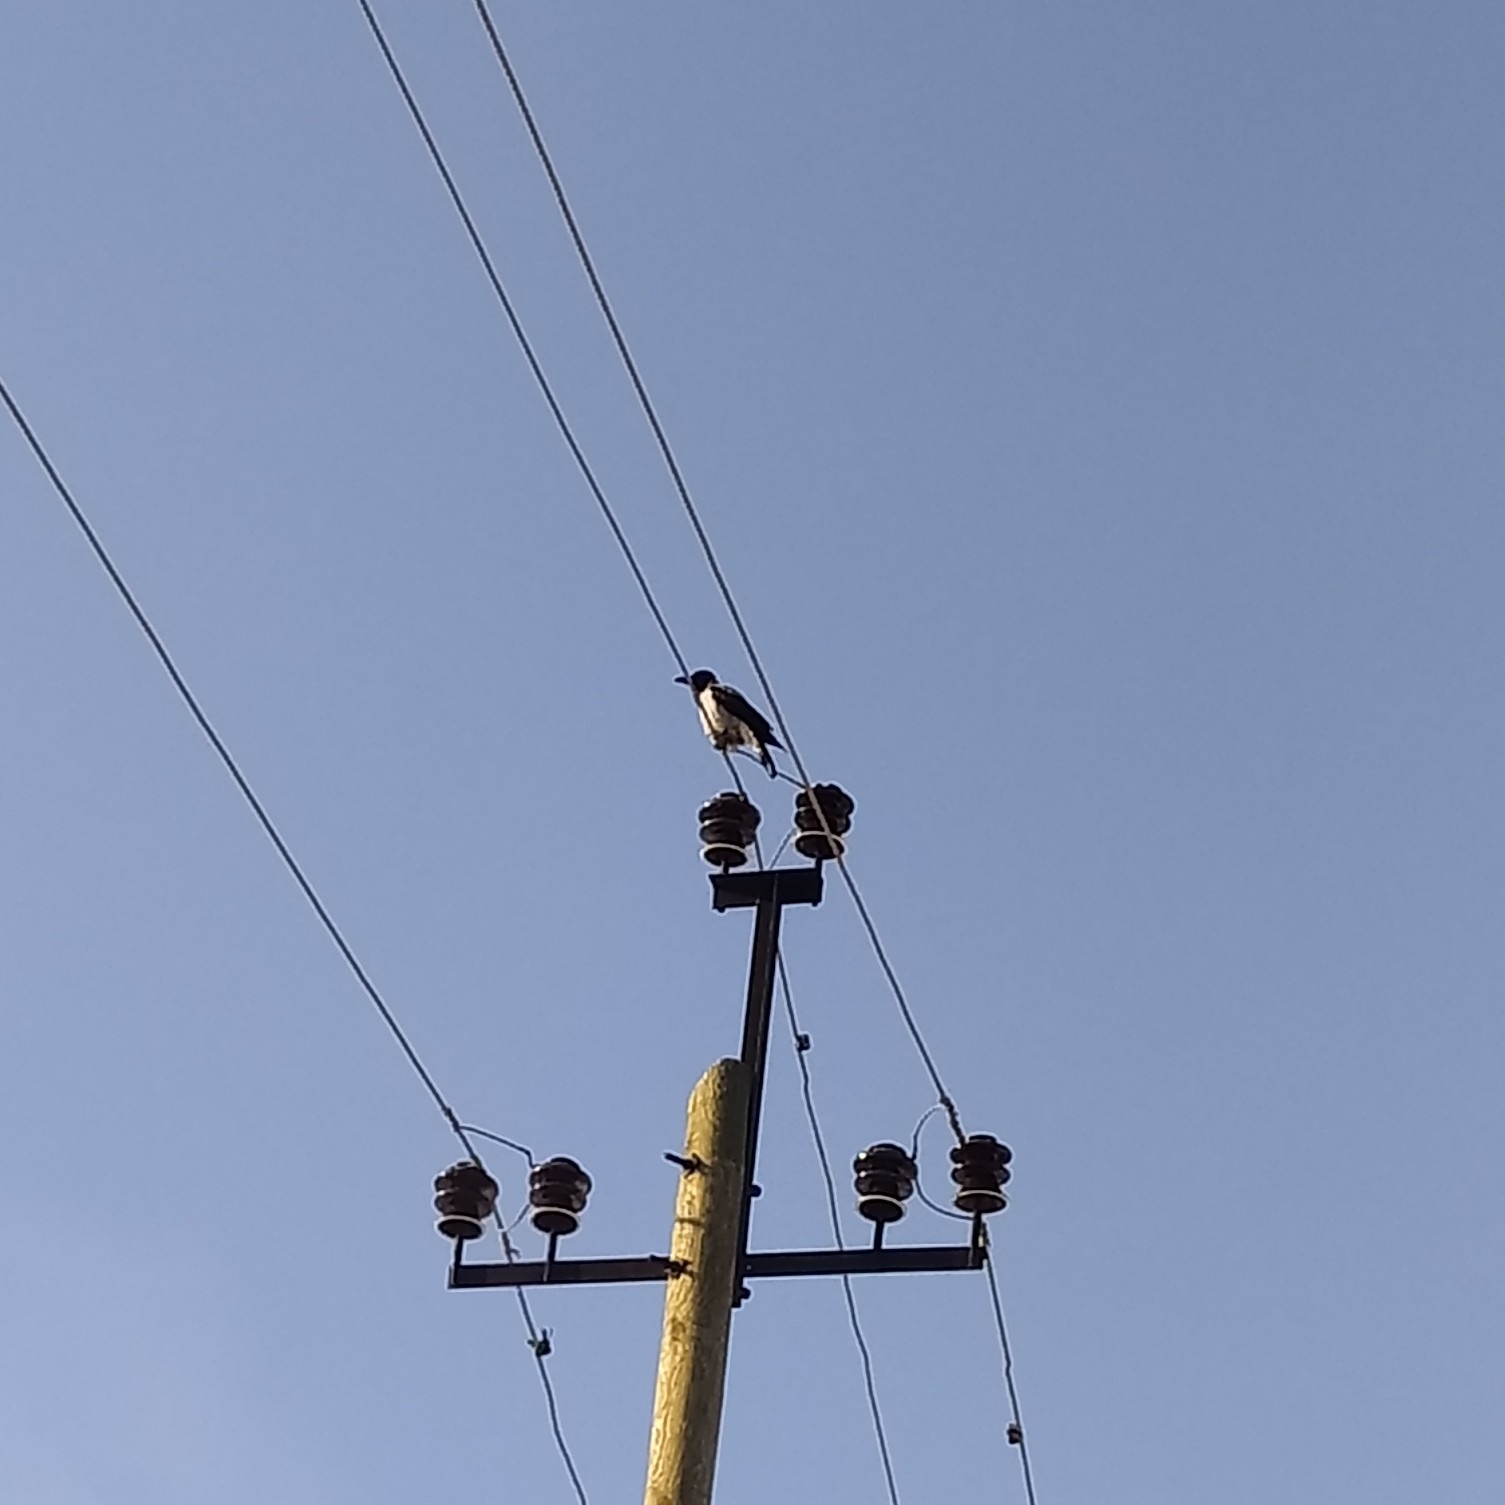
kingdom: Animalia
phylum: Chordata
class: Aves
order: Passeriformes
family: Corvidae
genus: Corvus
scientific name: Corvus cornix
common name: Hooded crow
